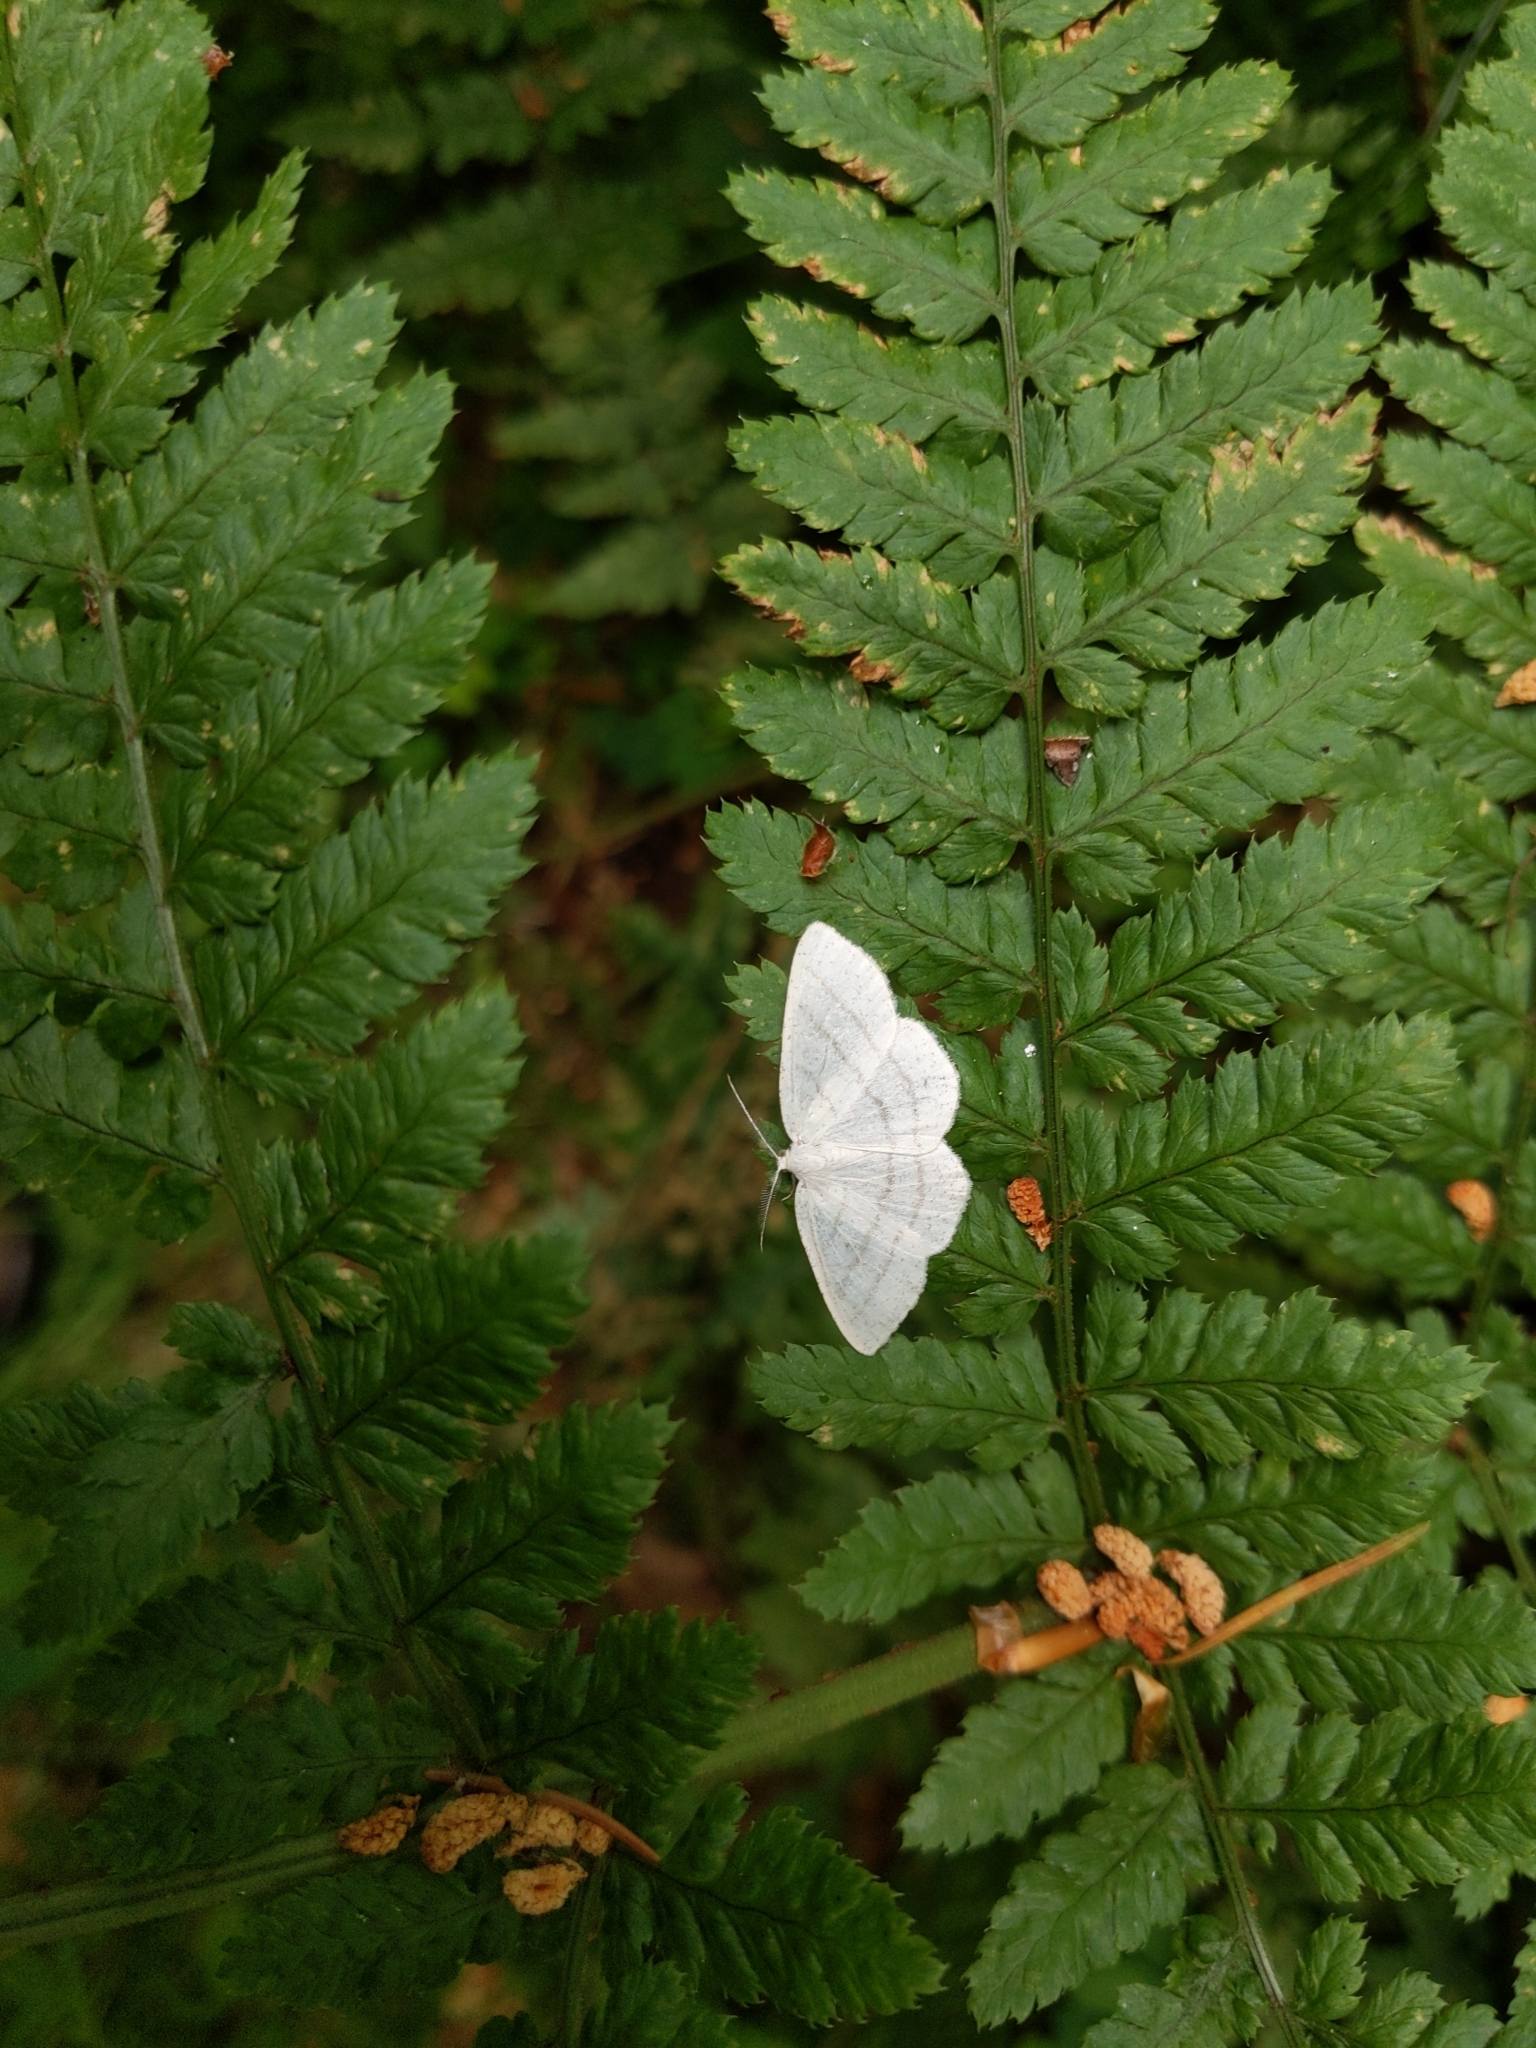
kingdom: Animalia
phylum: Arthropoda
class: Insecta
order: Lepidoptera
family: Geometridae
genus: Cabera
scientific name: Cabera pusaria
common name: Common white wave
